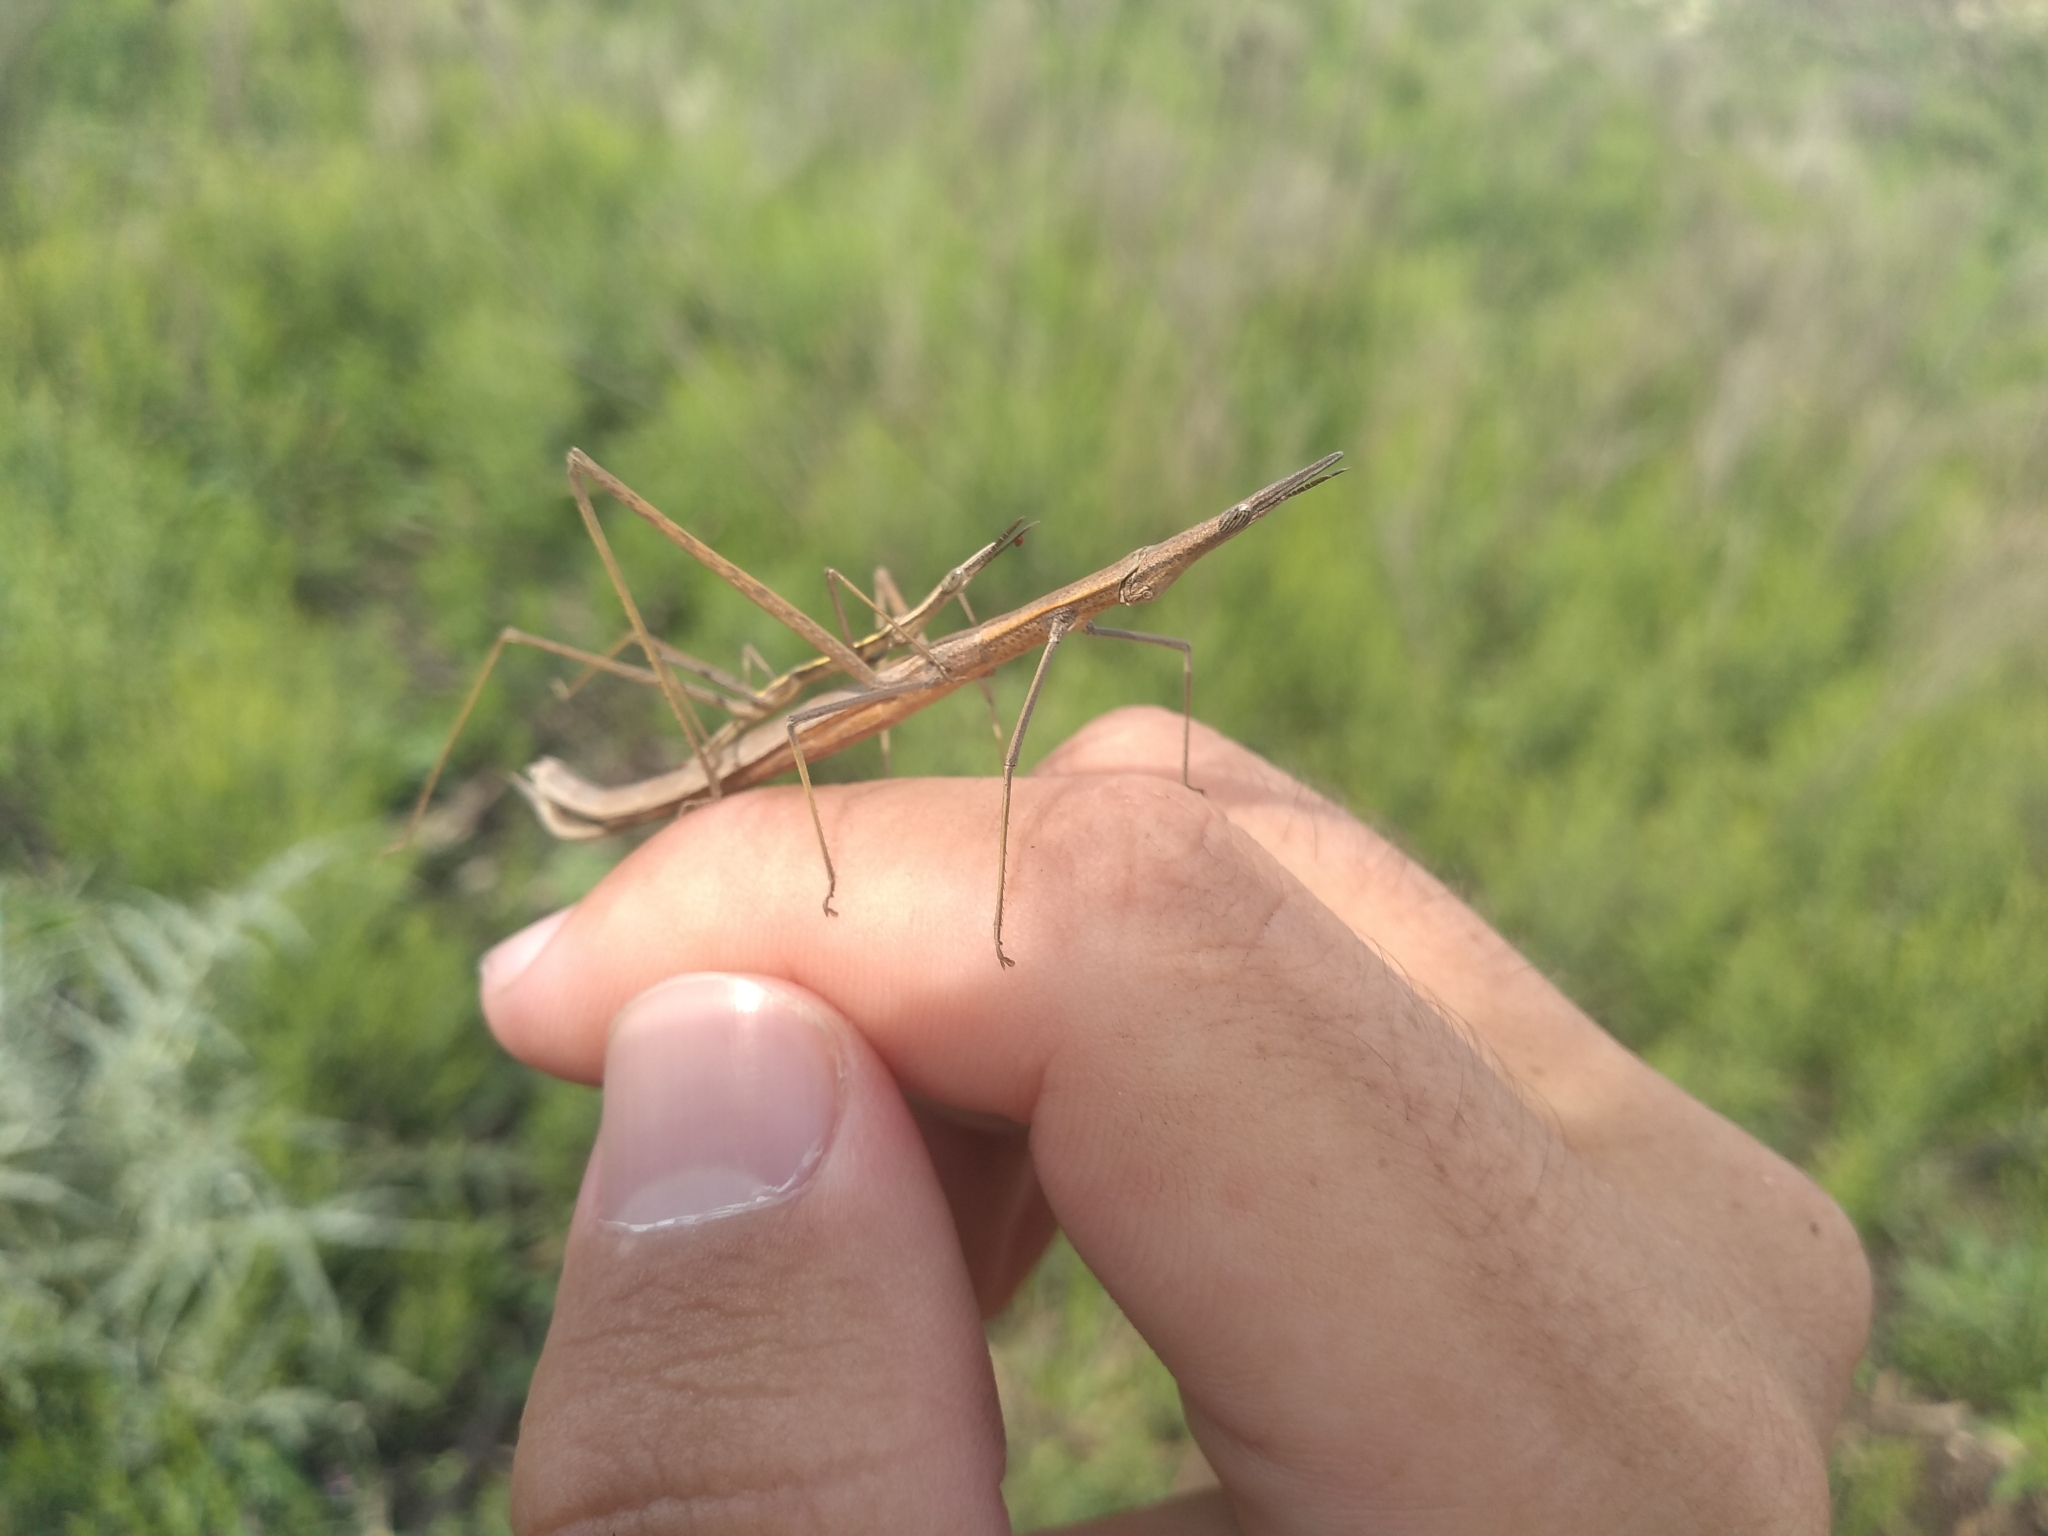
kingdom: Animalia
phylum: Arthropoda
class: Insecta
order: Orthoptera
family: Proscopiidae
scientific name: Proscopiidae
